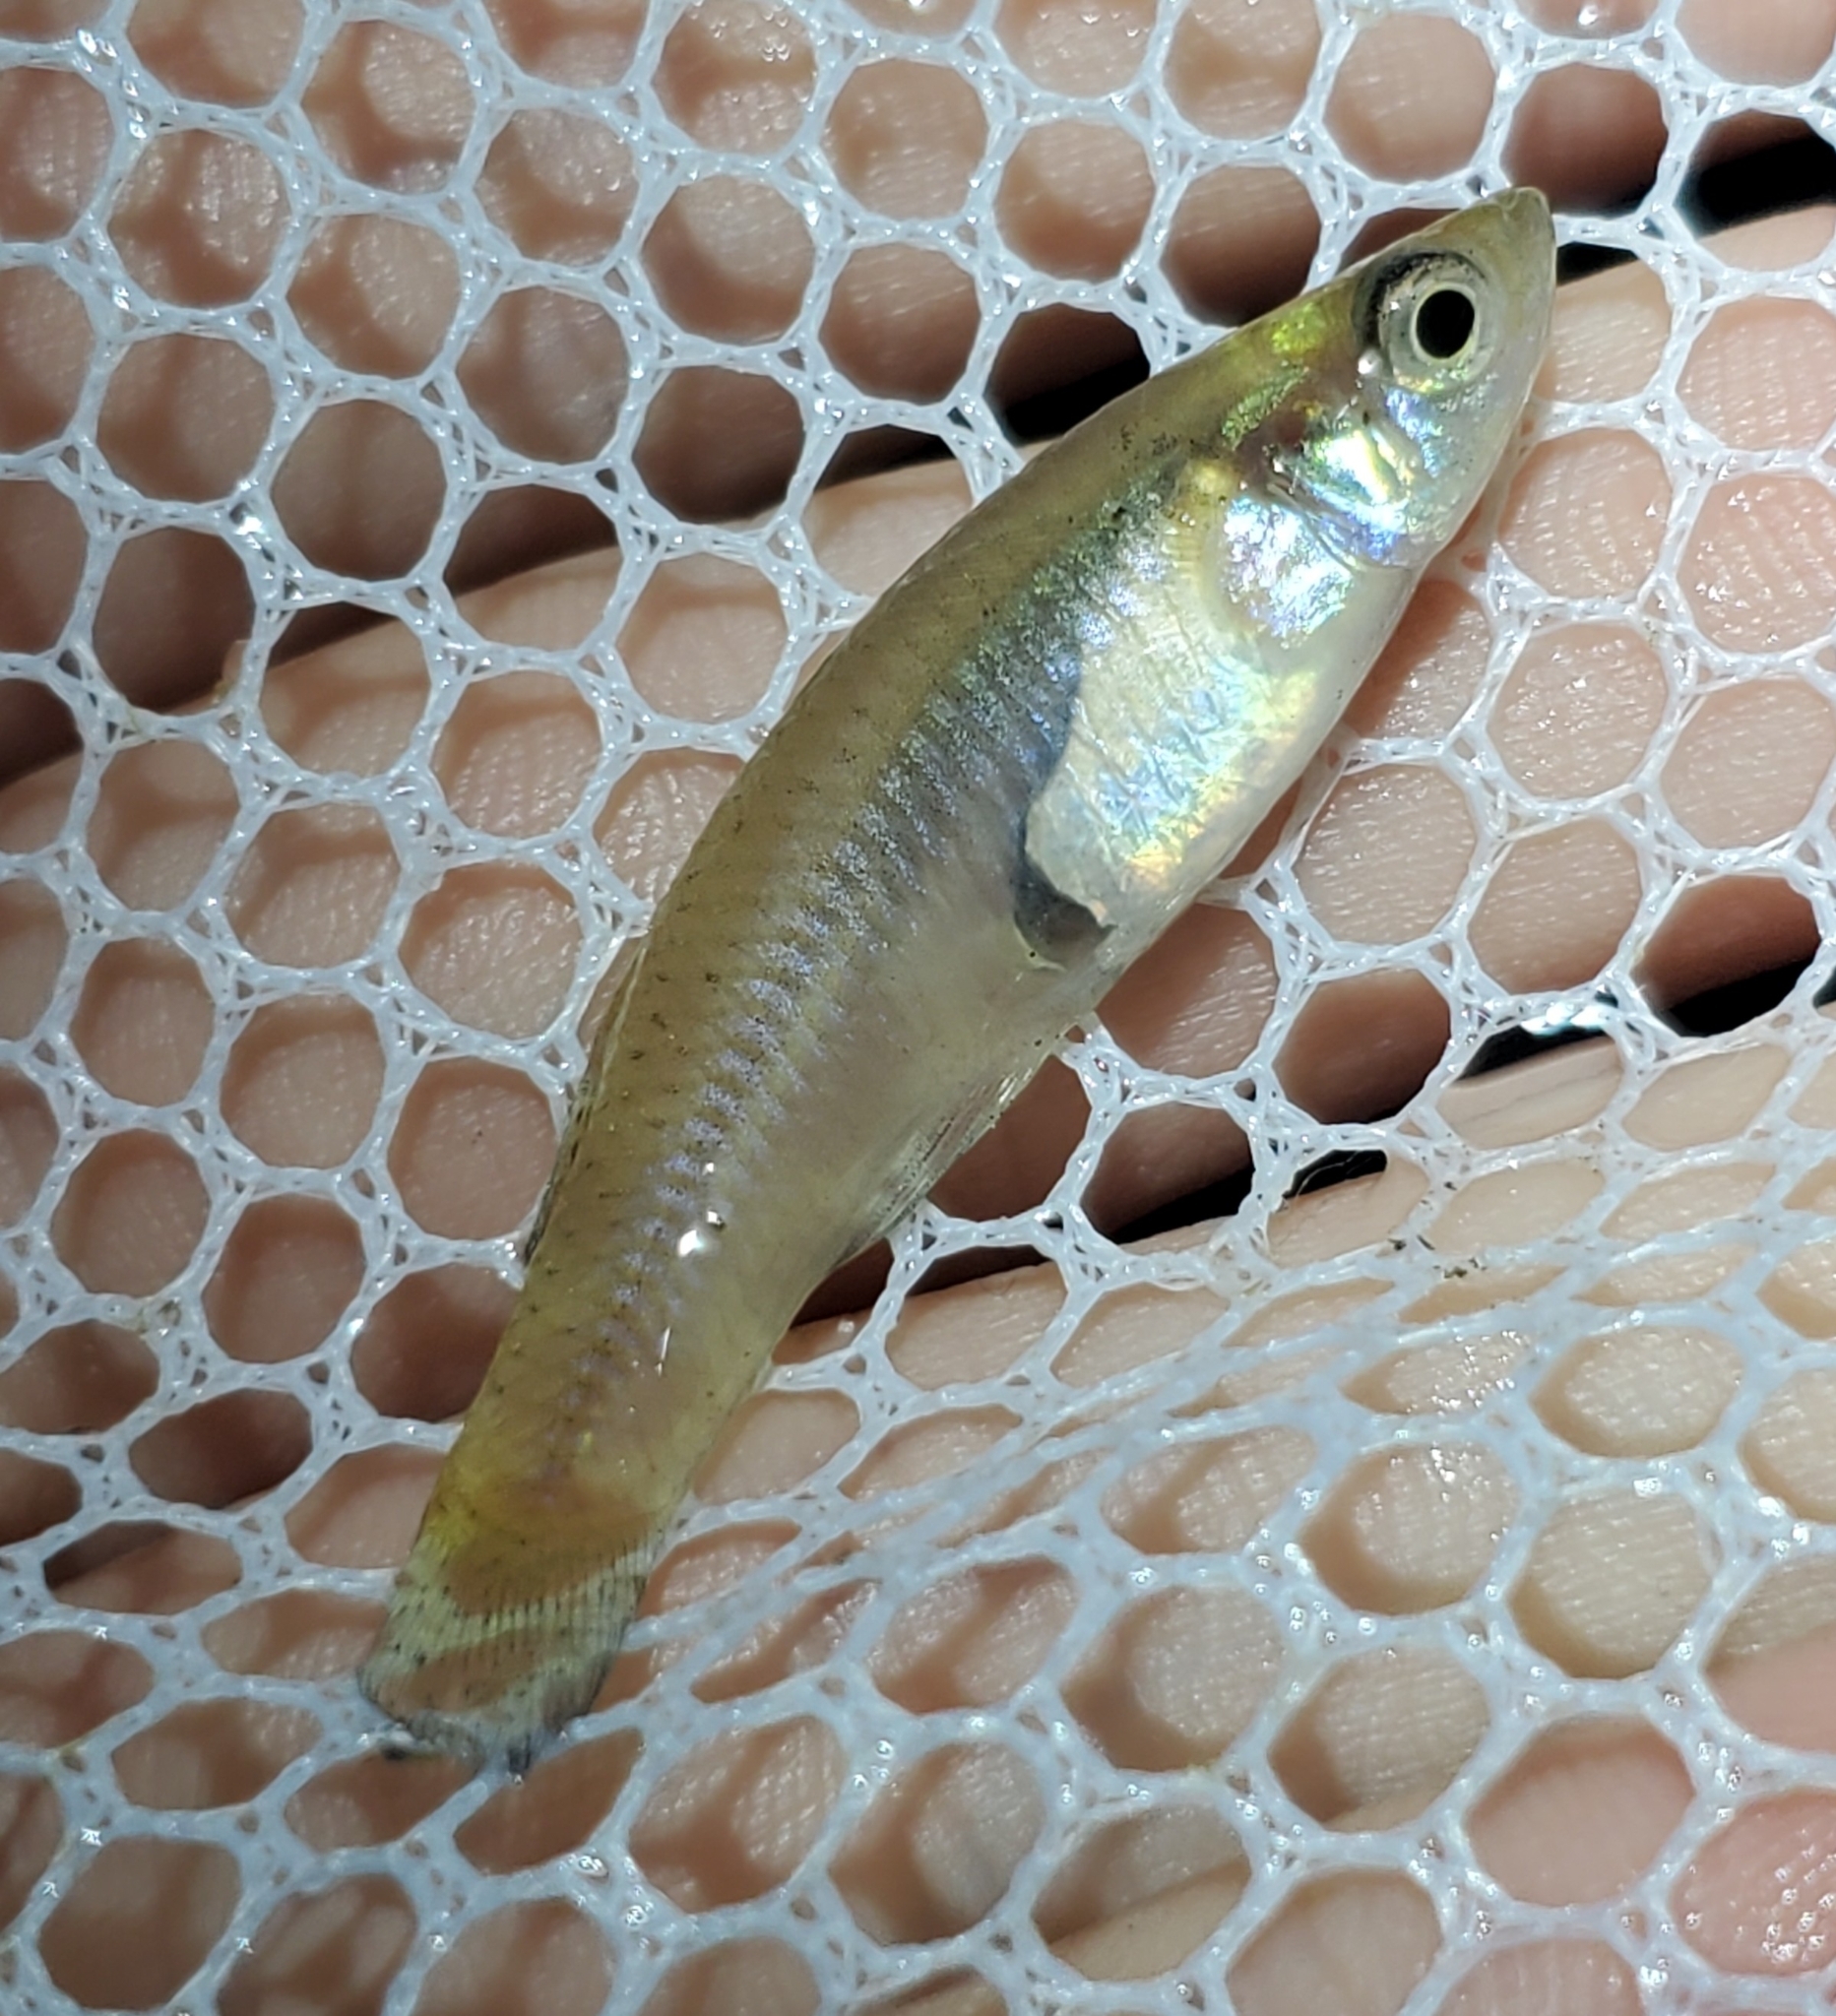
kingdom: Animalia
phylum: Chordata
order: Cyprinodontiformes
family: Poeciliidae
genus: Gambusia
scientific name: Gambusia holbrooki
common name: Eastern mosquitofish
